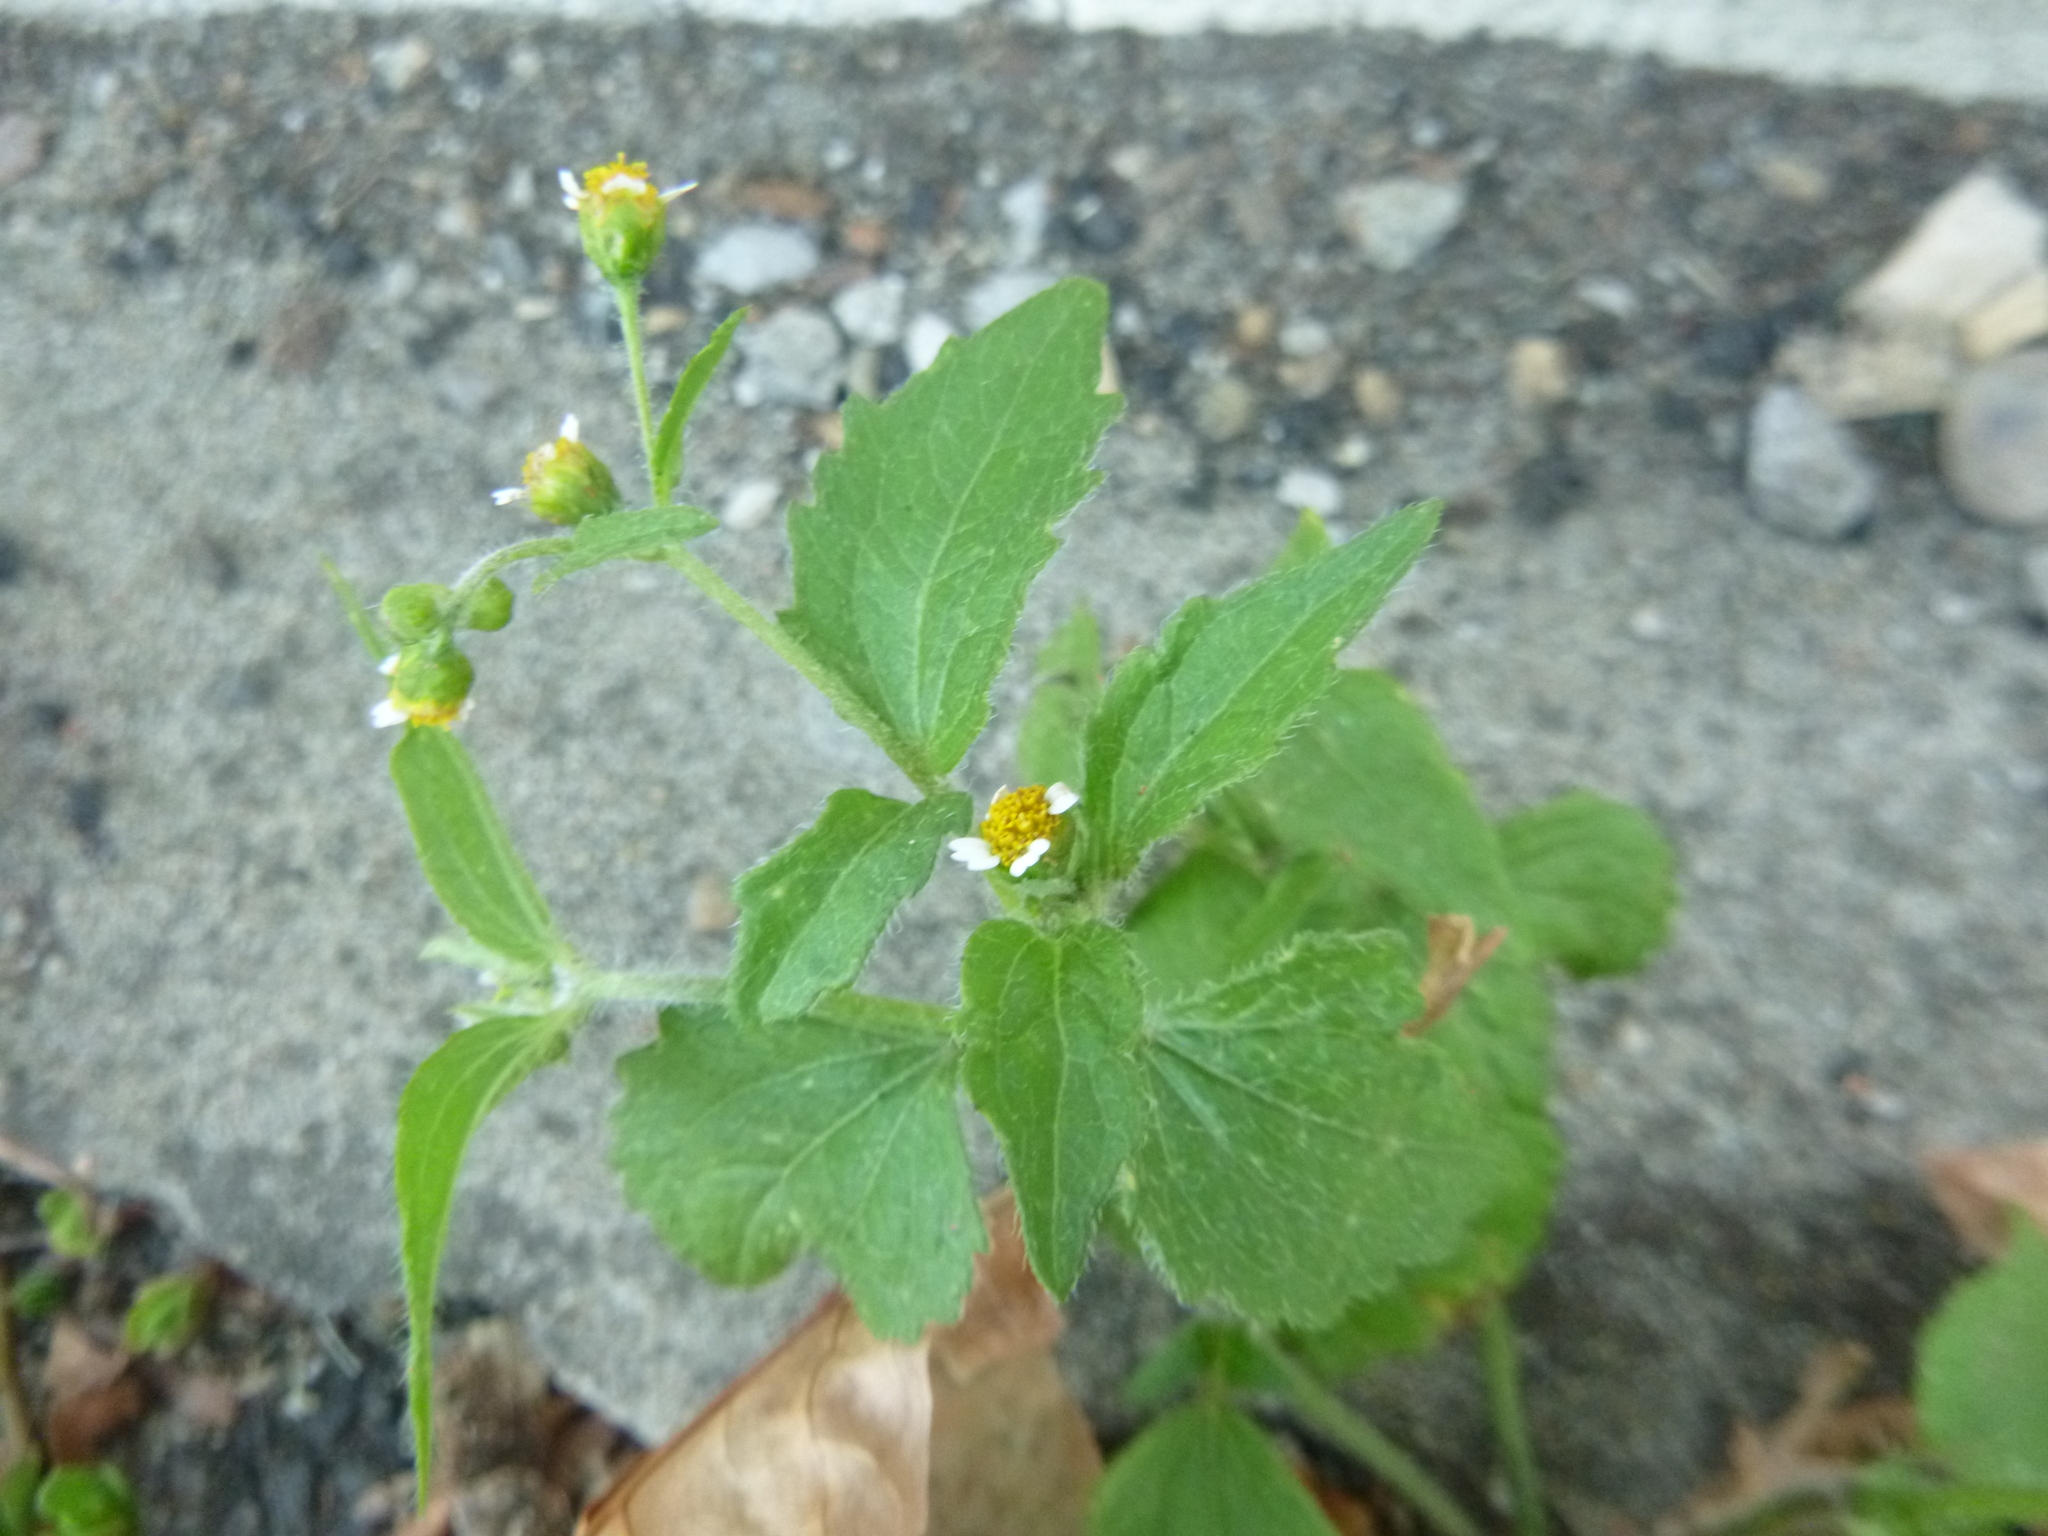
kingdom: Plantae
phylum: Tracheophyta
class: Magnoliopsida
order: Asterales
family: Asteraceae
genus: Galinsoga
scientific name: Galinsoga quadriradiata
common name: Shaggy soldier
